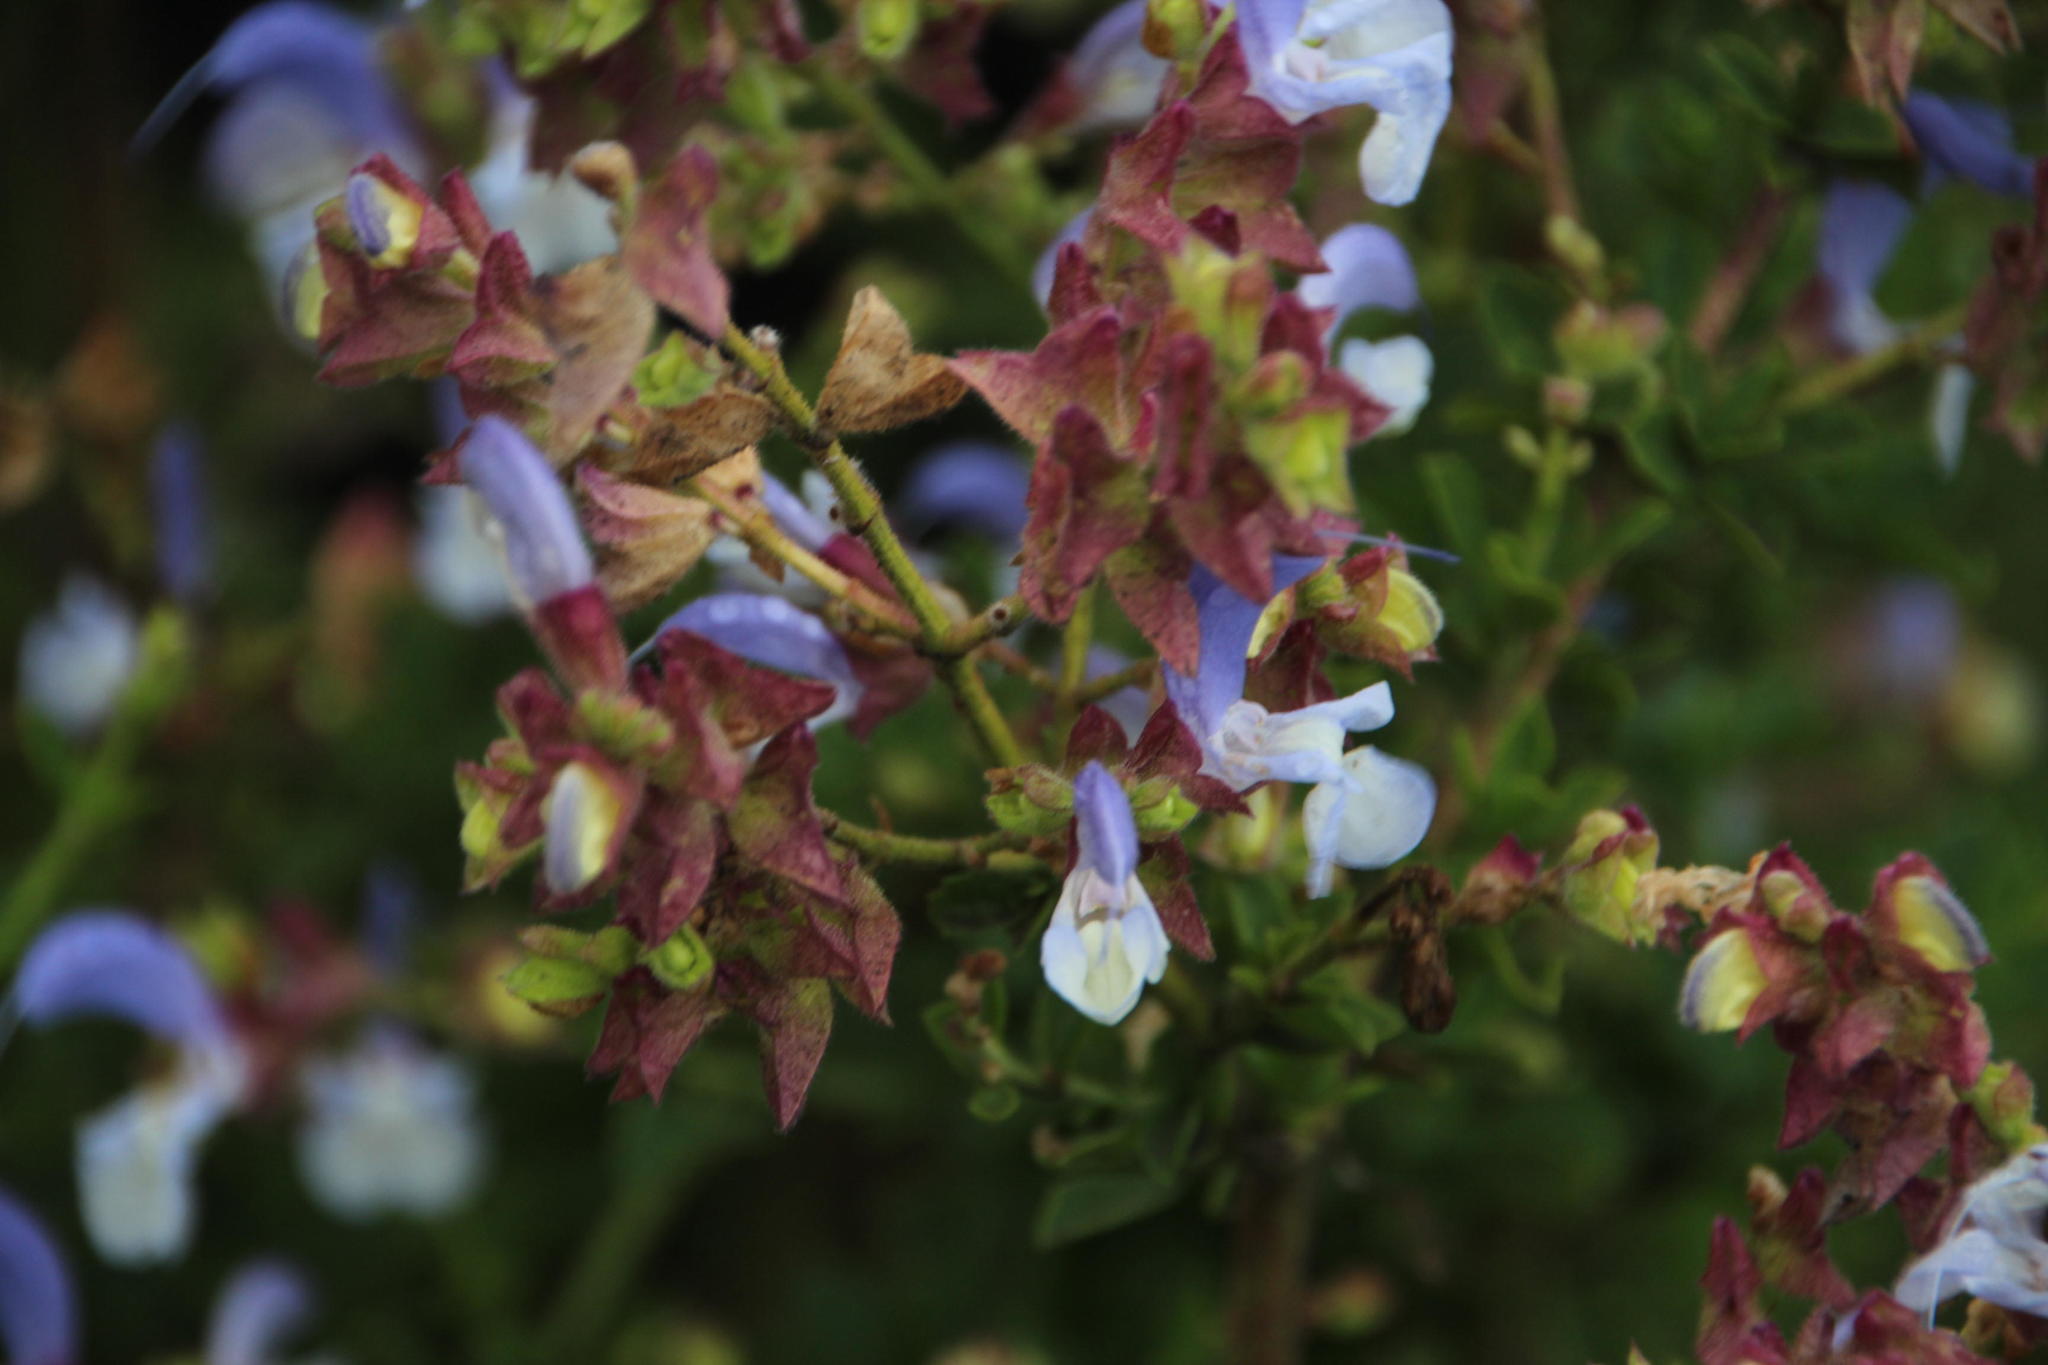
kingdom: Plantae
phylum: Tracheophyta
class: Magnoliopsida
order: Lamiales
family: Lamiaceae
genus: Salvia
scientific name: Salvia chamelaeagnea
